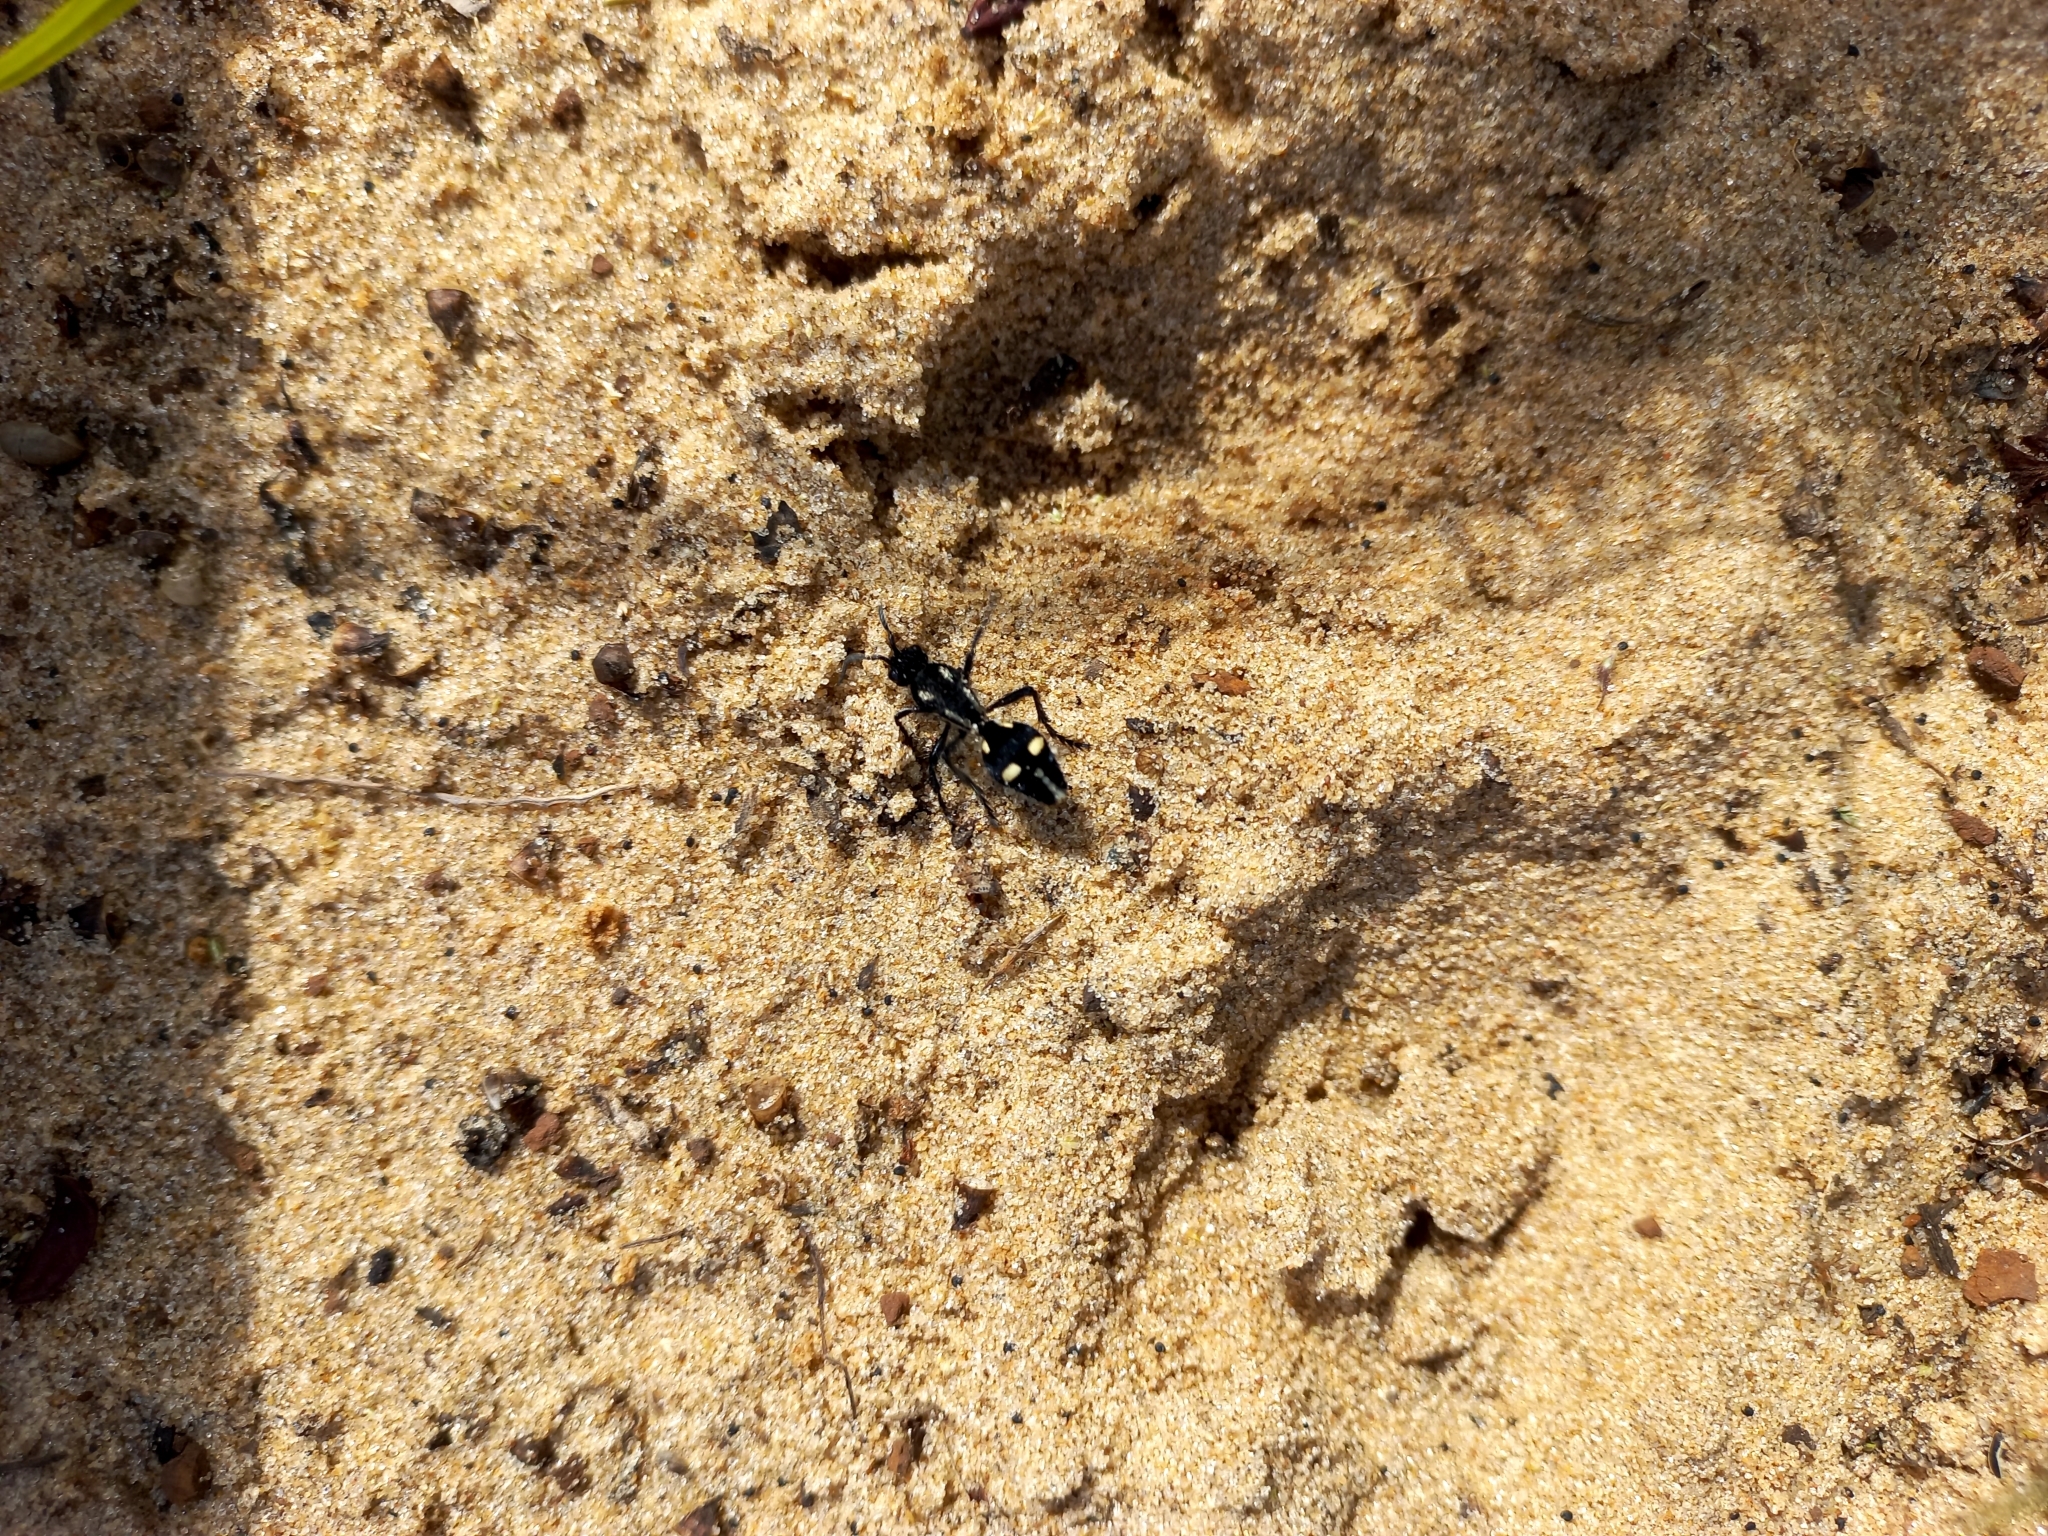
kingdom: Animalia
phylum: Arthropoda
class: Insecta
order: Hymenoptera
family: Mutillidae
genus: Traumatomutilla
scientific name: Traumatomutilla
